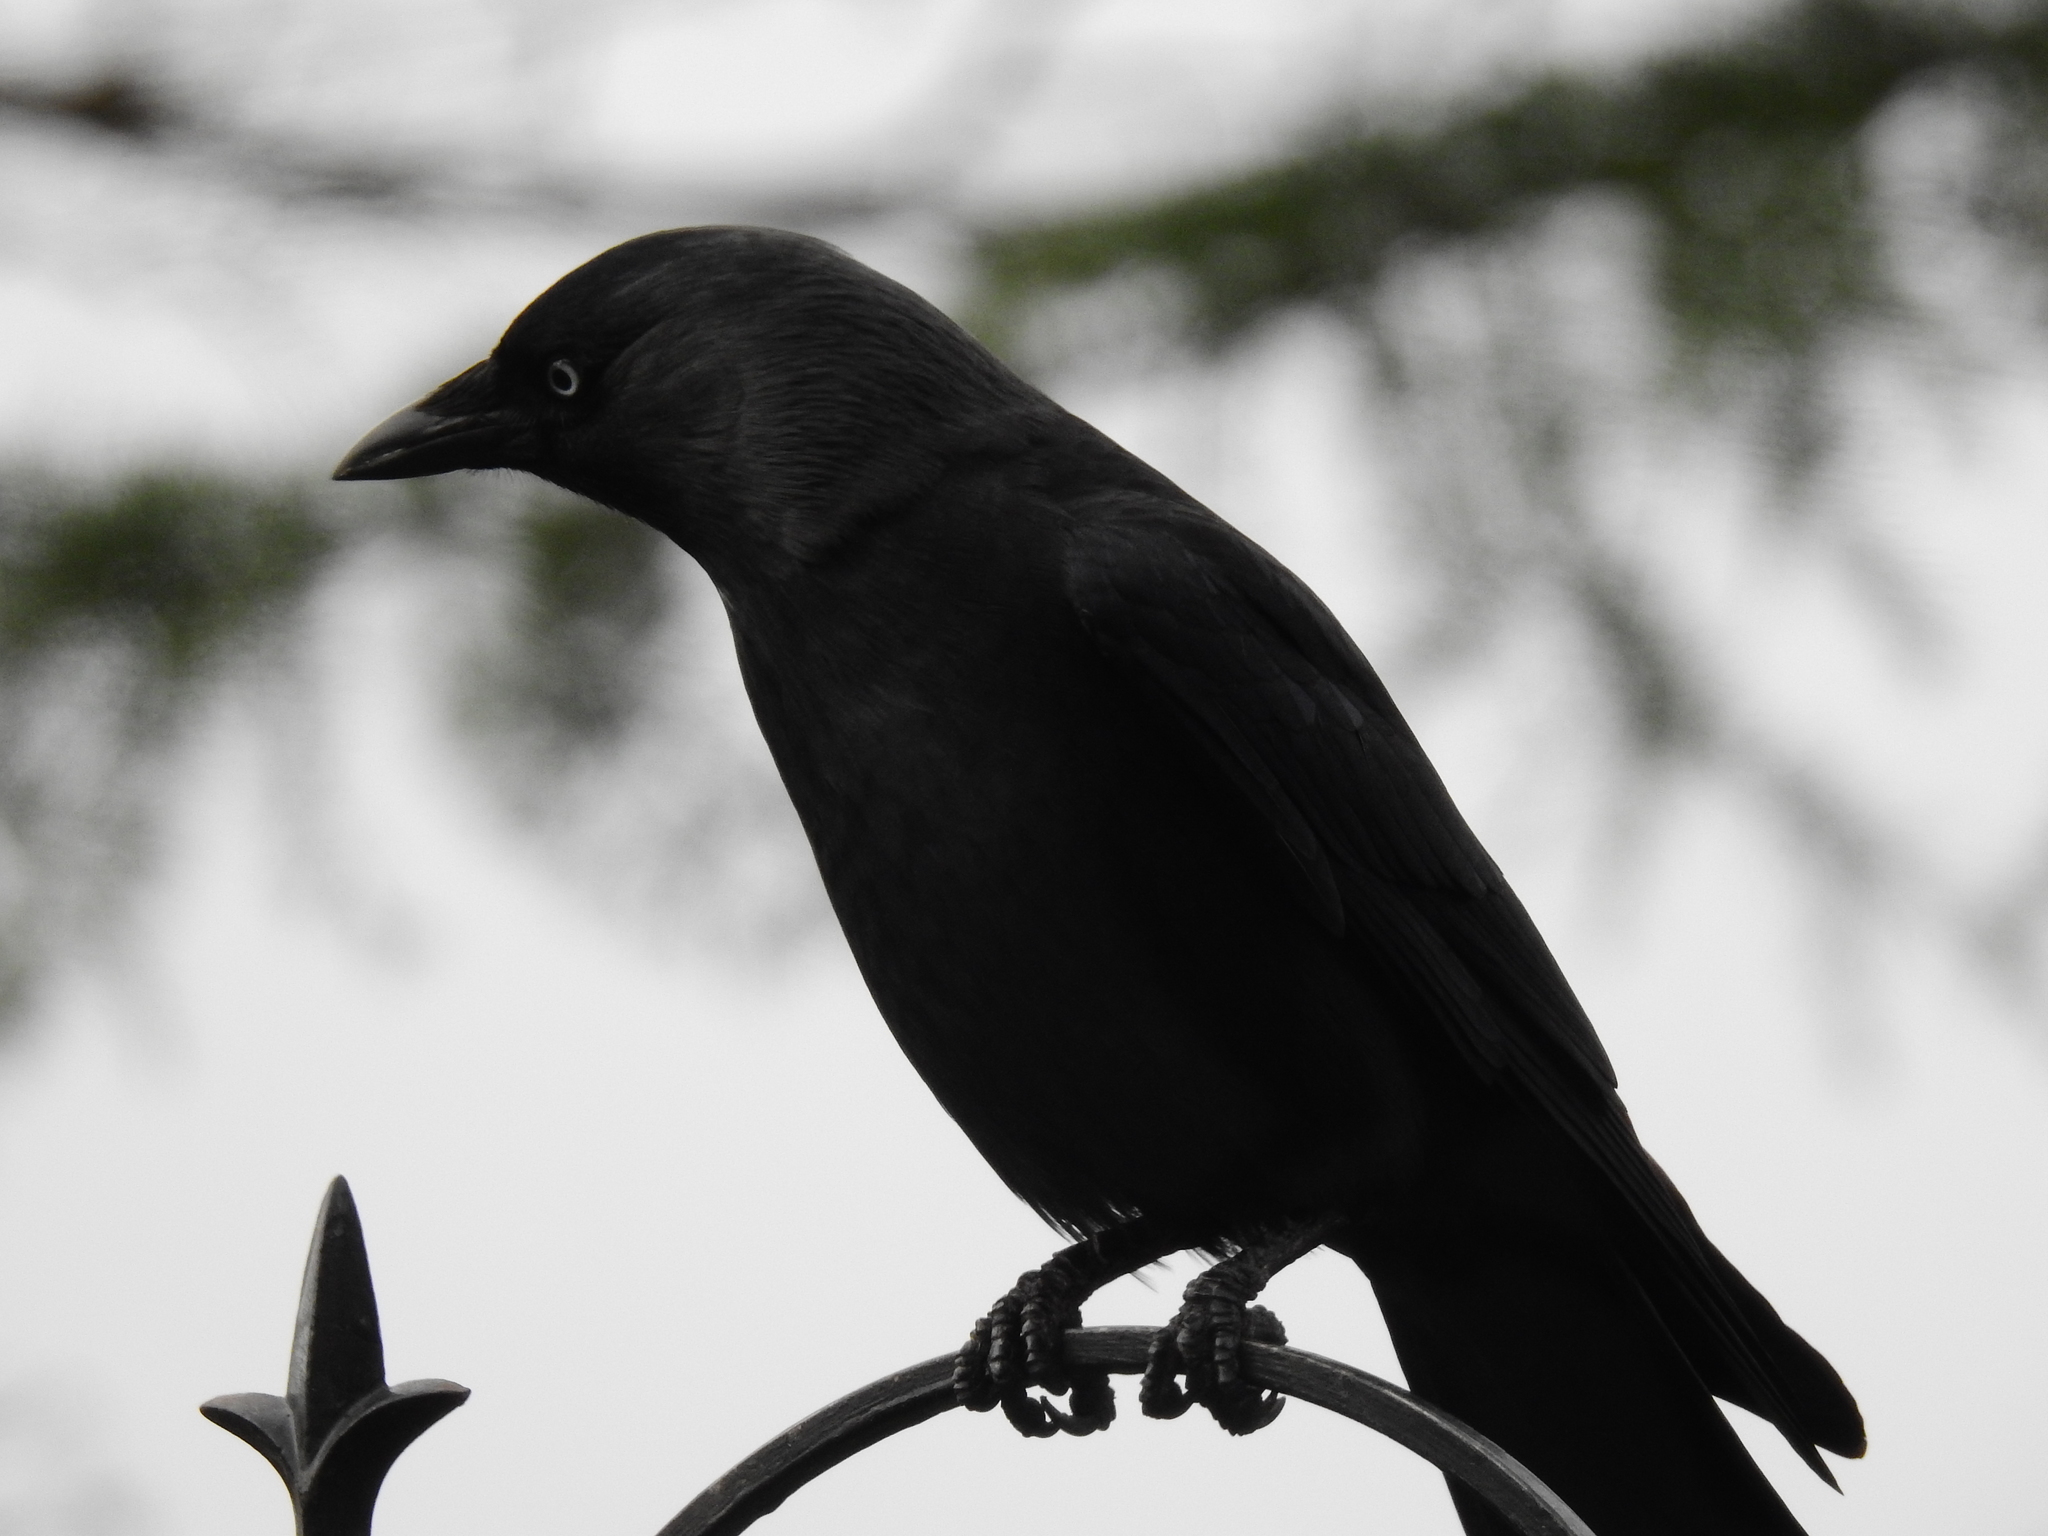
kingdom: Animalia
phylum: Chordata
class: Aves
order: Passeriformes
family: Corvidae
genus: Coloeus
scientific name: Coloeus monedula
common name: Western jackdaw
